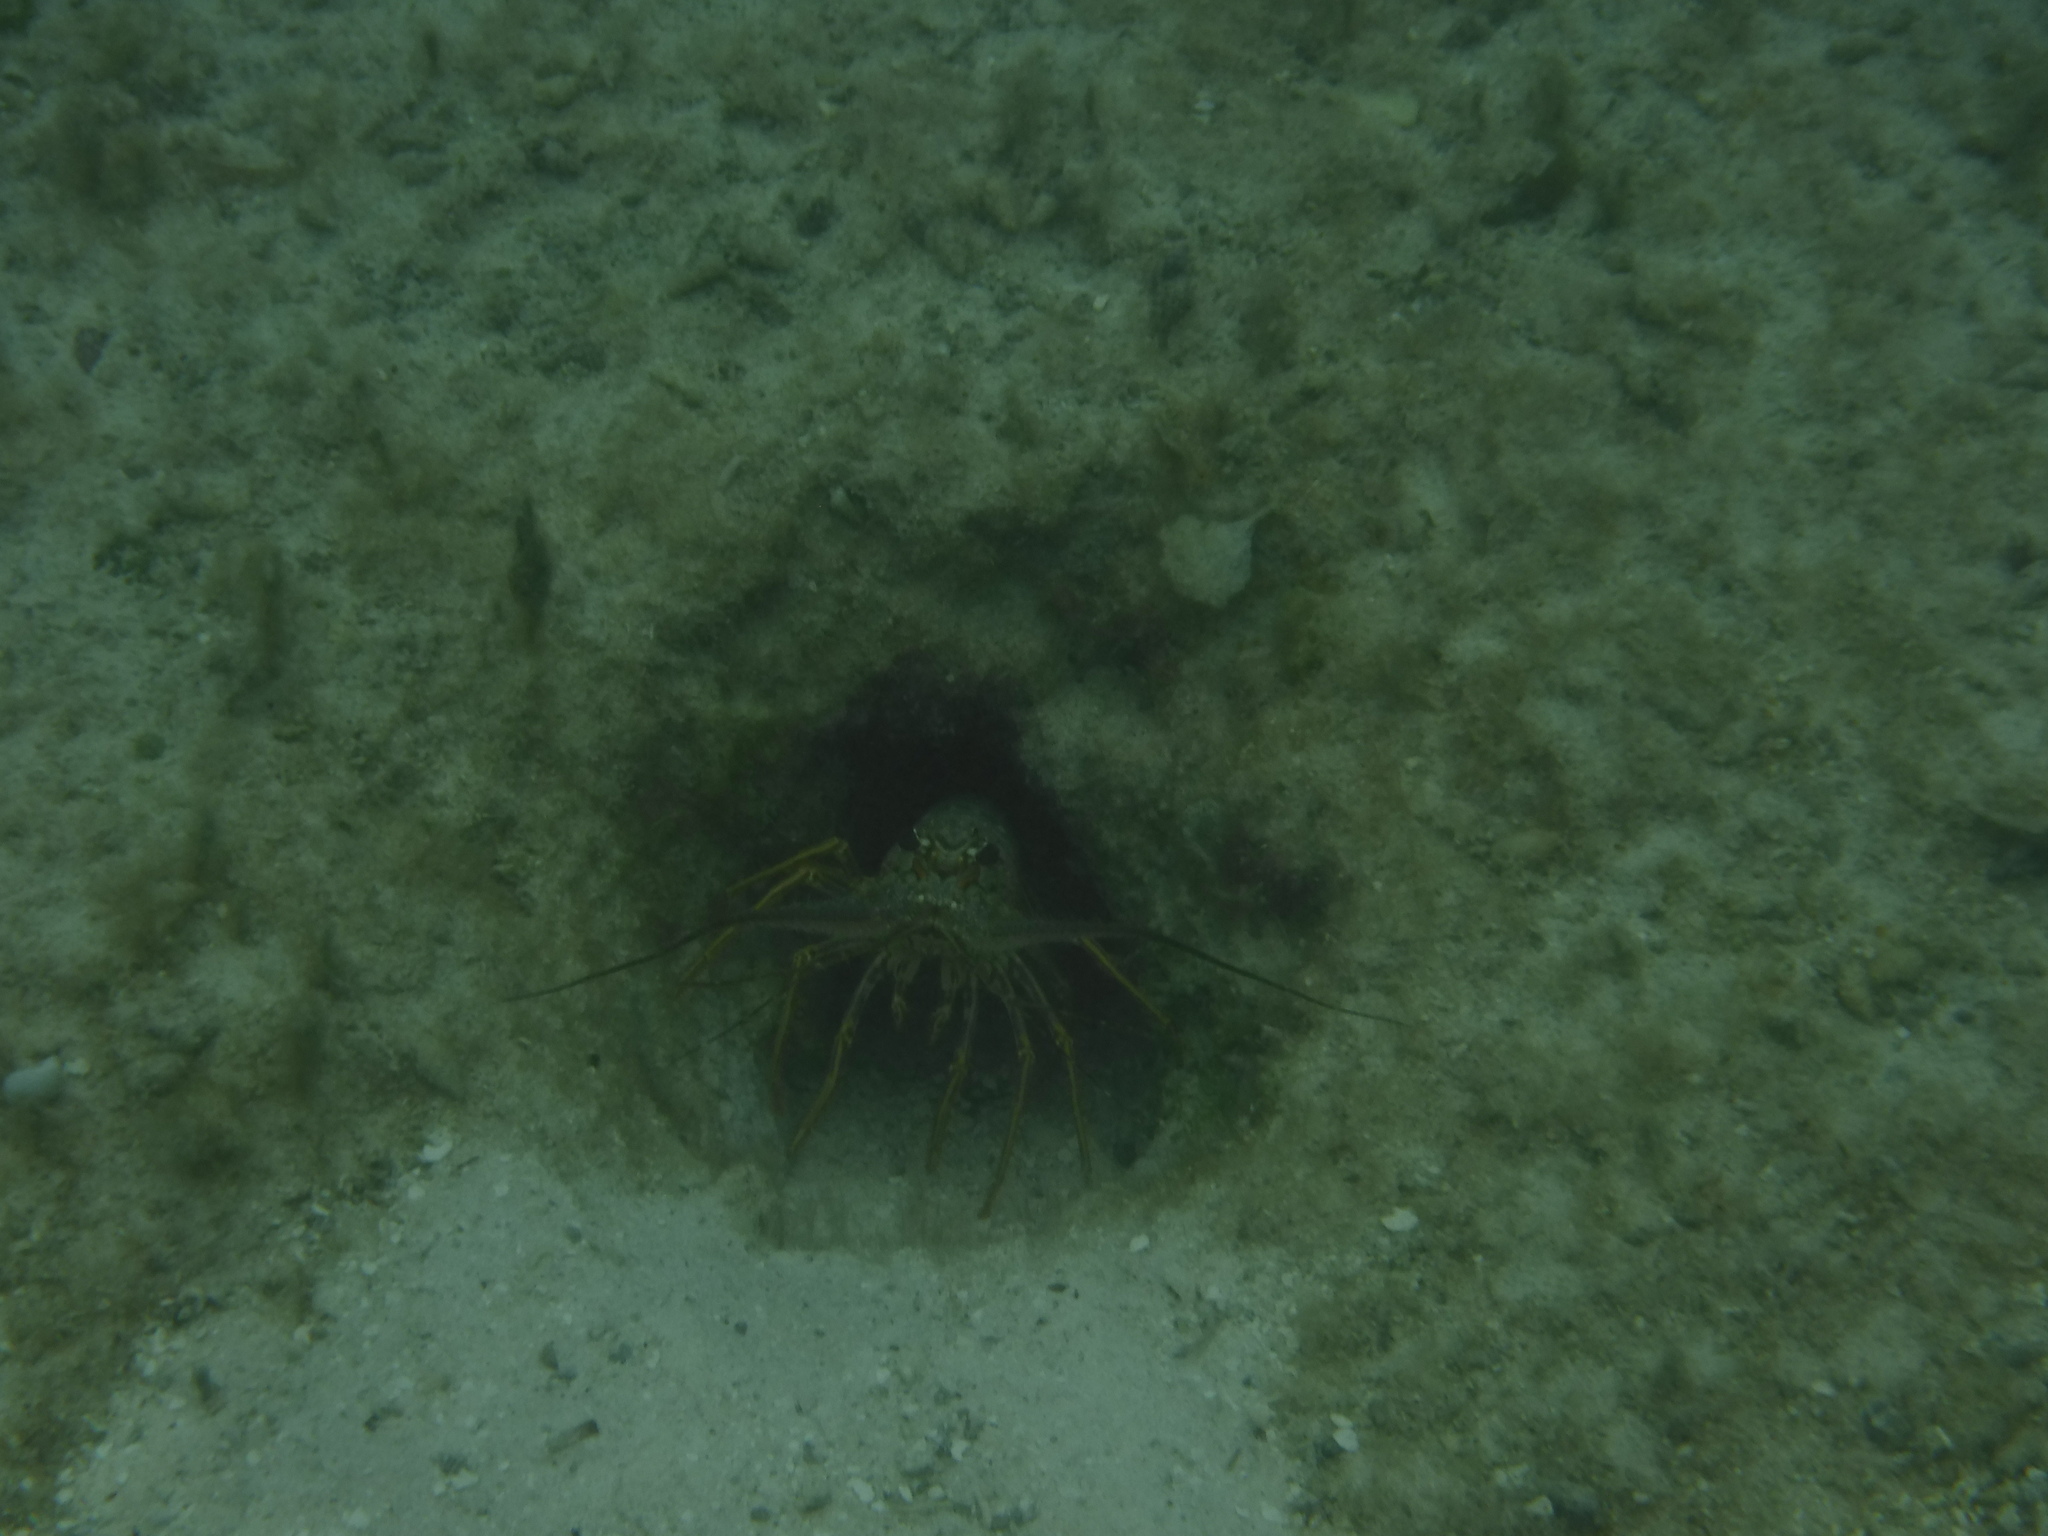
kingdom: Animalia
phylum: Arthropoda
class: Malacostraca
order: Decapoda
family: Palinuridae
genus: Panulirus
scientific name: Panulirus argus
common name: Caribbean spiny lobster
